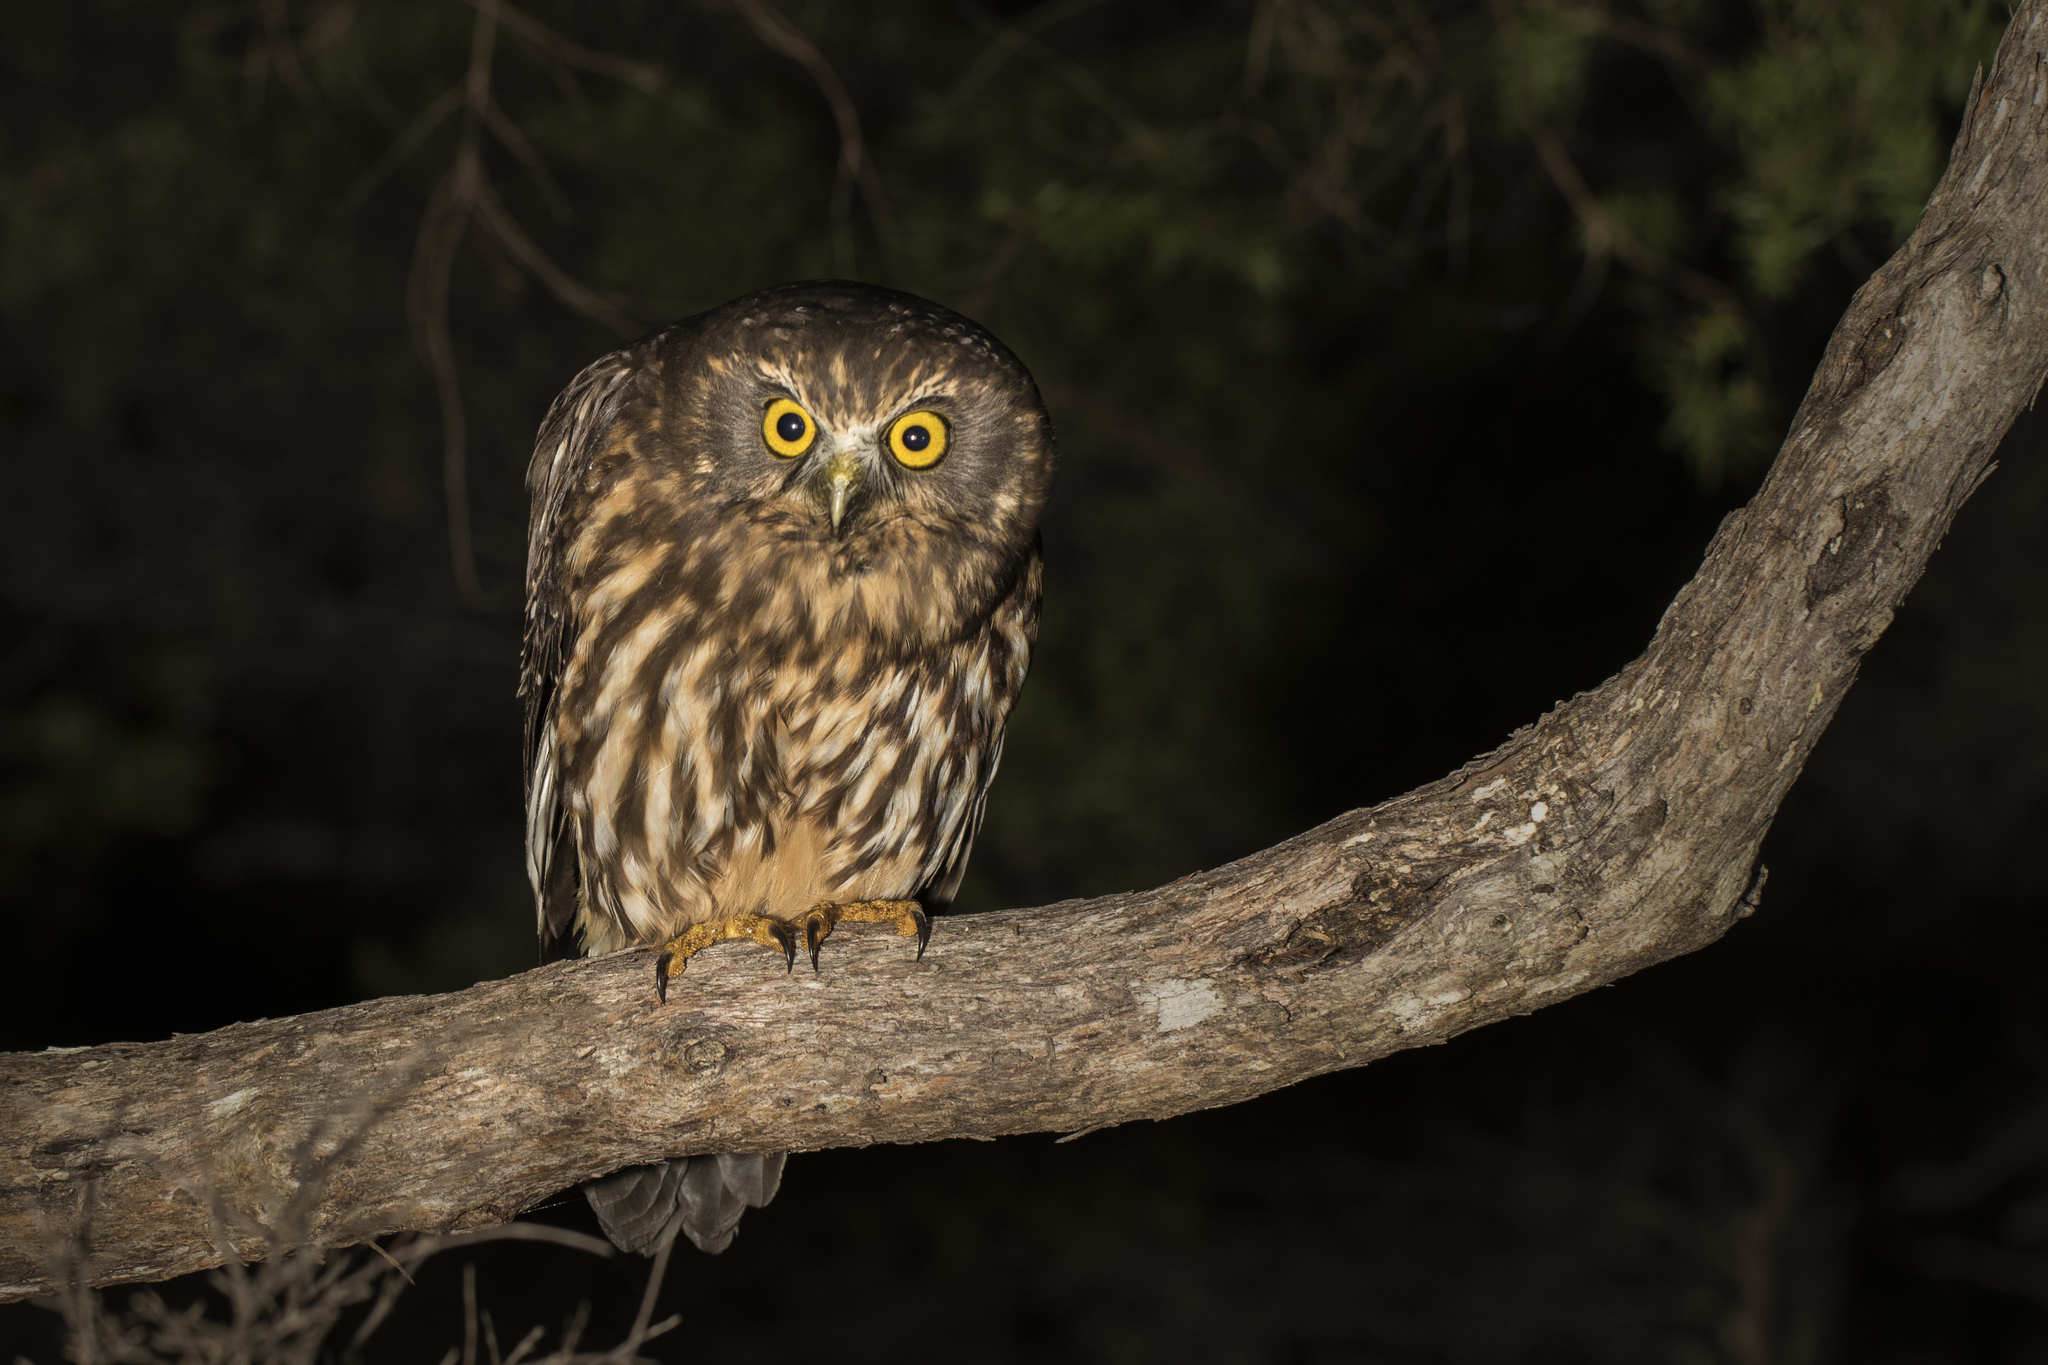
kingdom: Animalia
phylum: Chordata
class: Aves
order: Strigiformes
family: Strigidae
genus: Ninox
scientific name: Ninox novaeseelandiae
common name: Morepork
